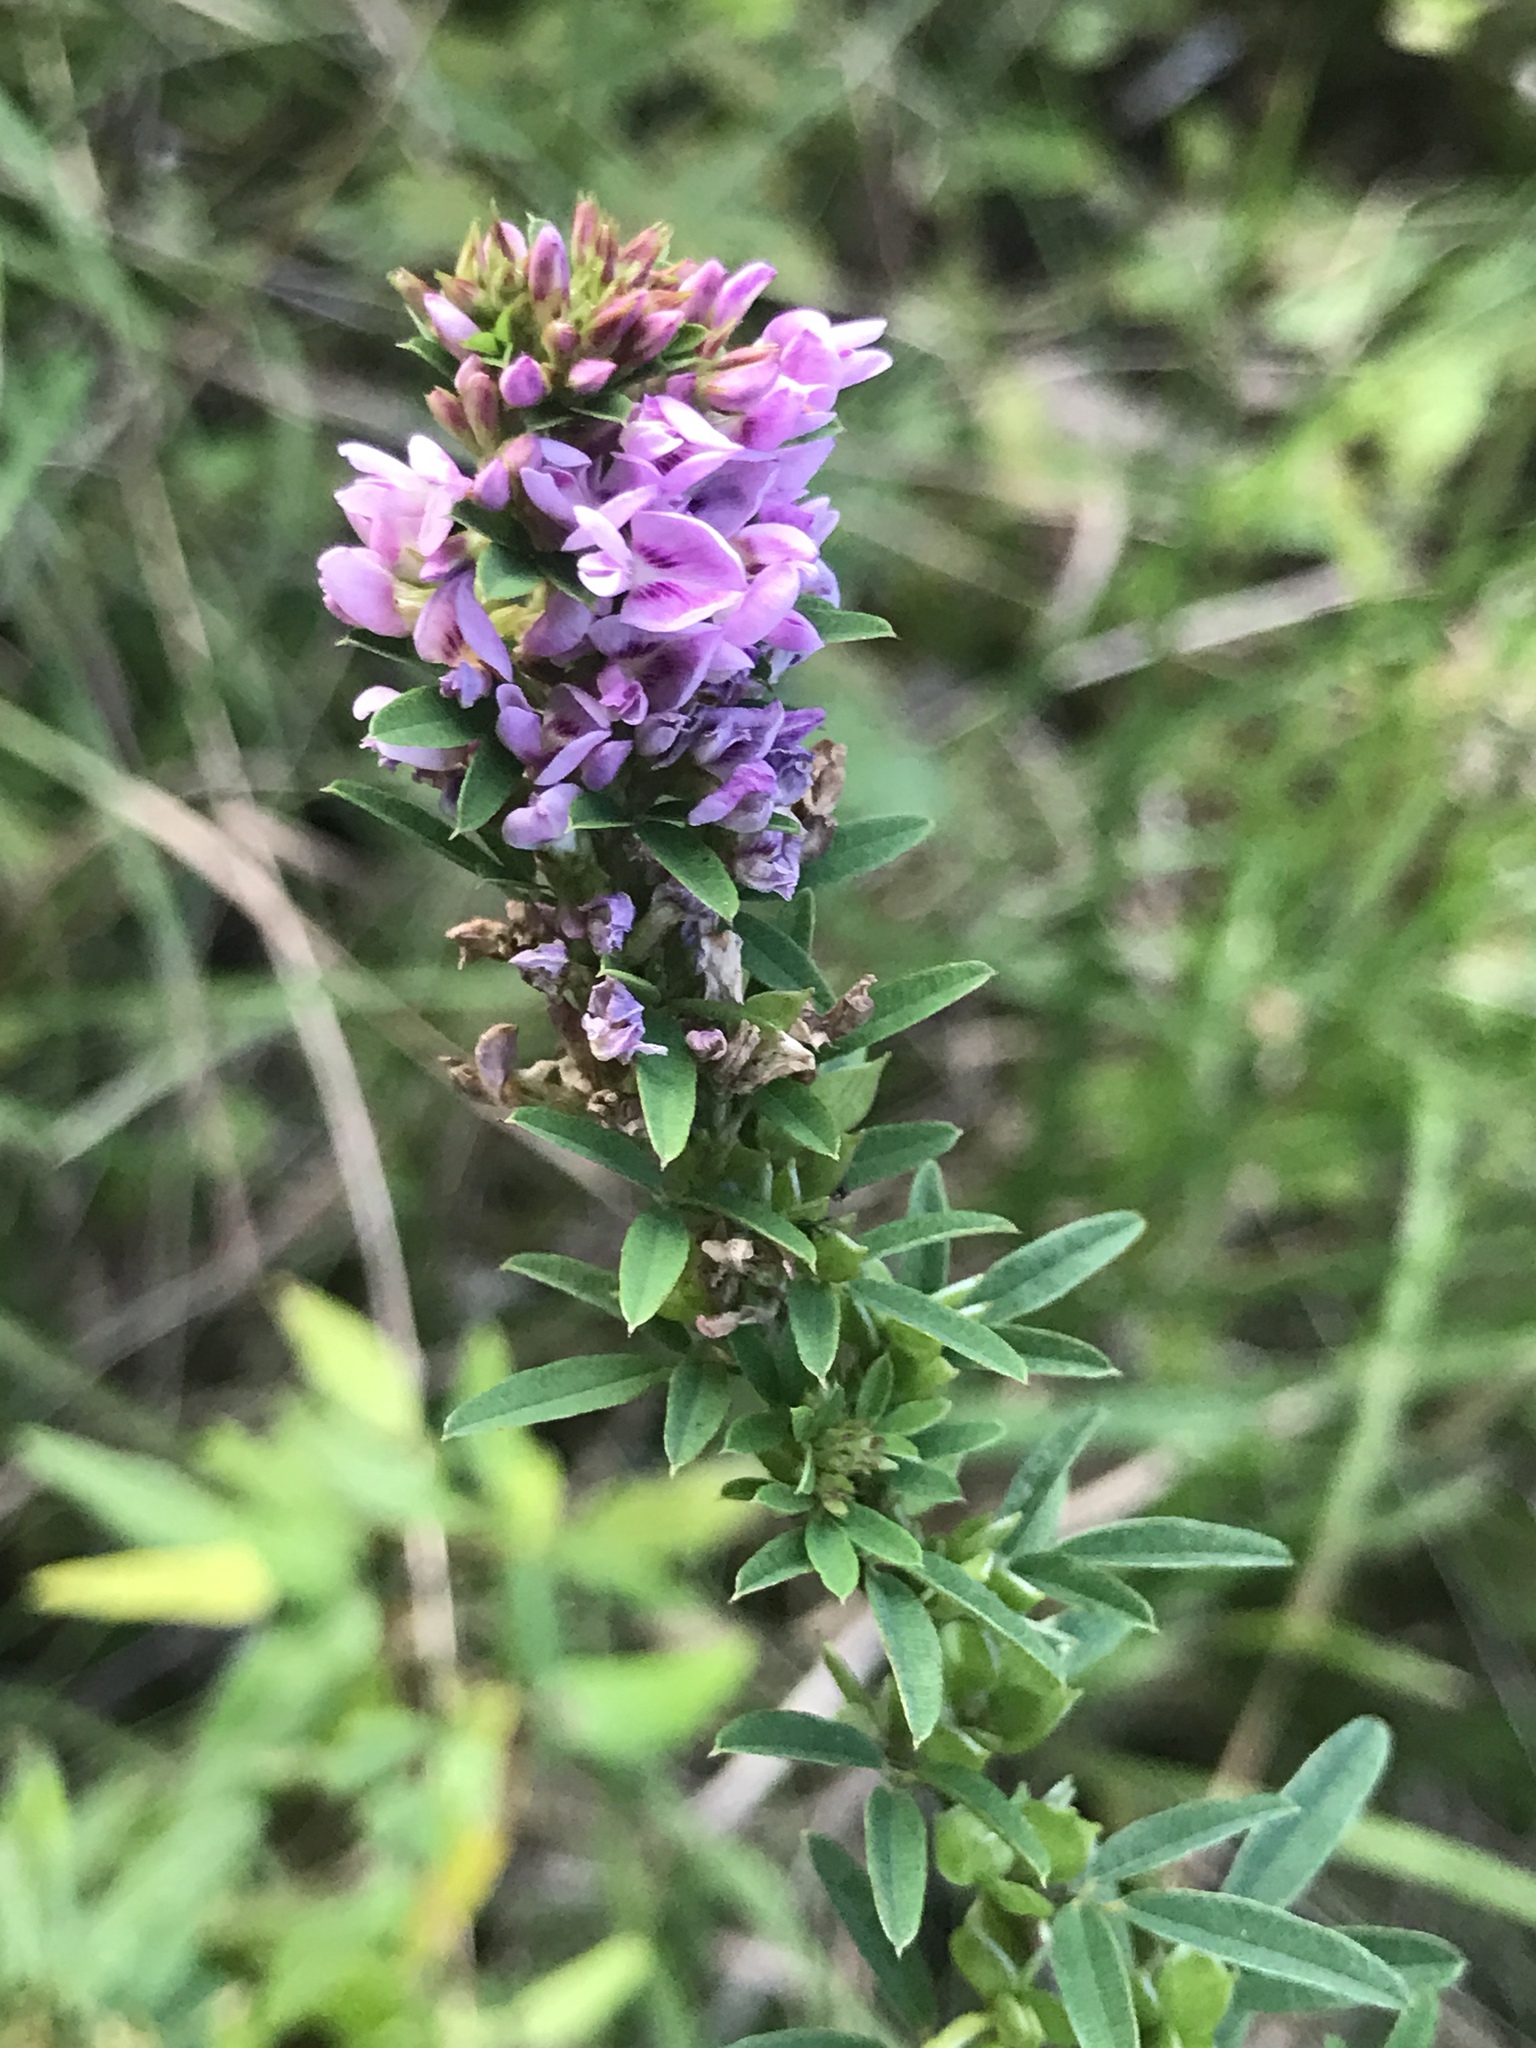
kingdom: Plantae
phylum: Tracheophyta
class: Magnoliopsida
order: Fabales
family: Fabaceae
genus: Lespedeza
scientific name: Lespedeza virginica
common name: Slender bush-clover
